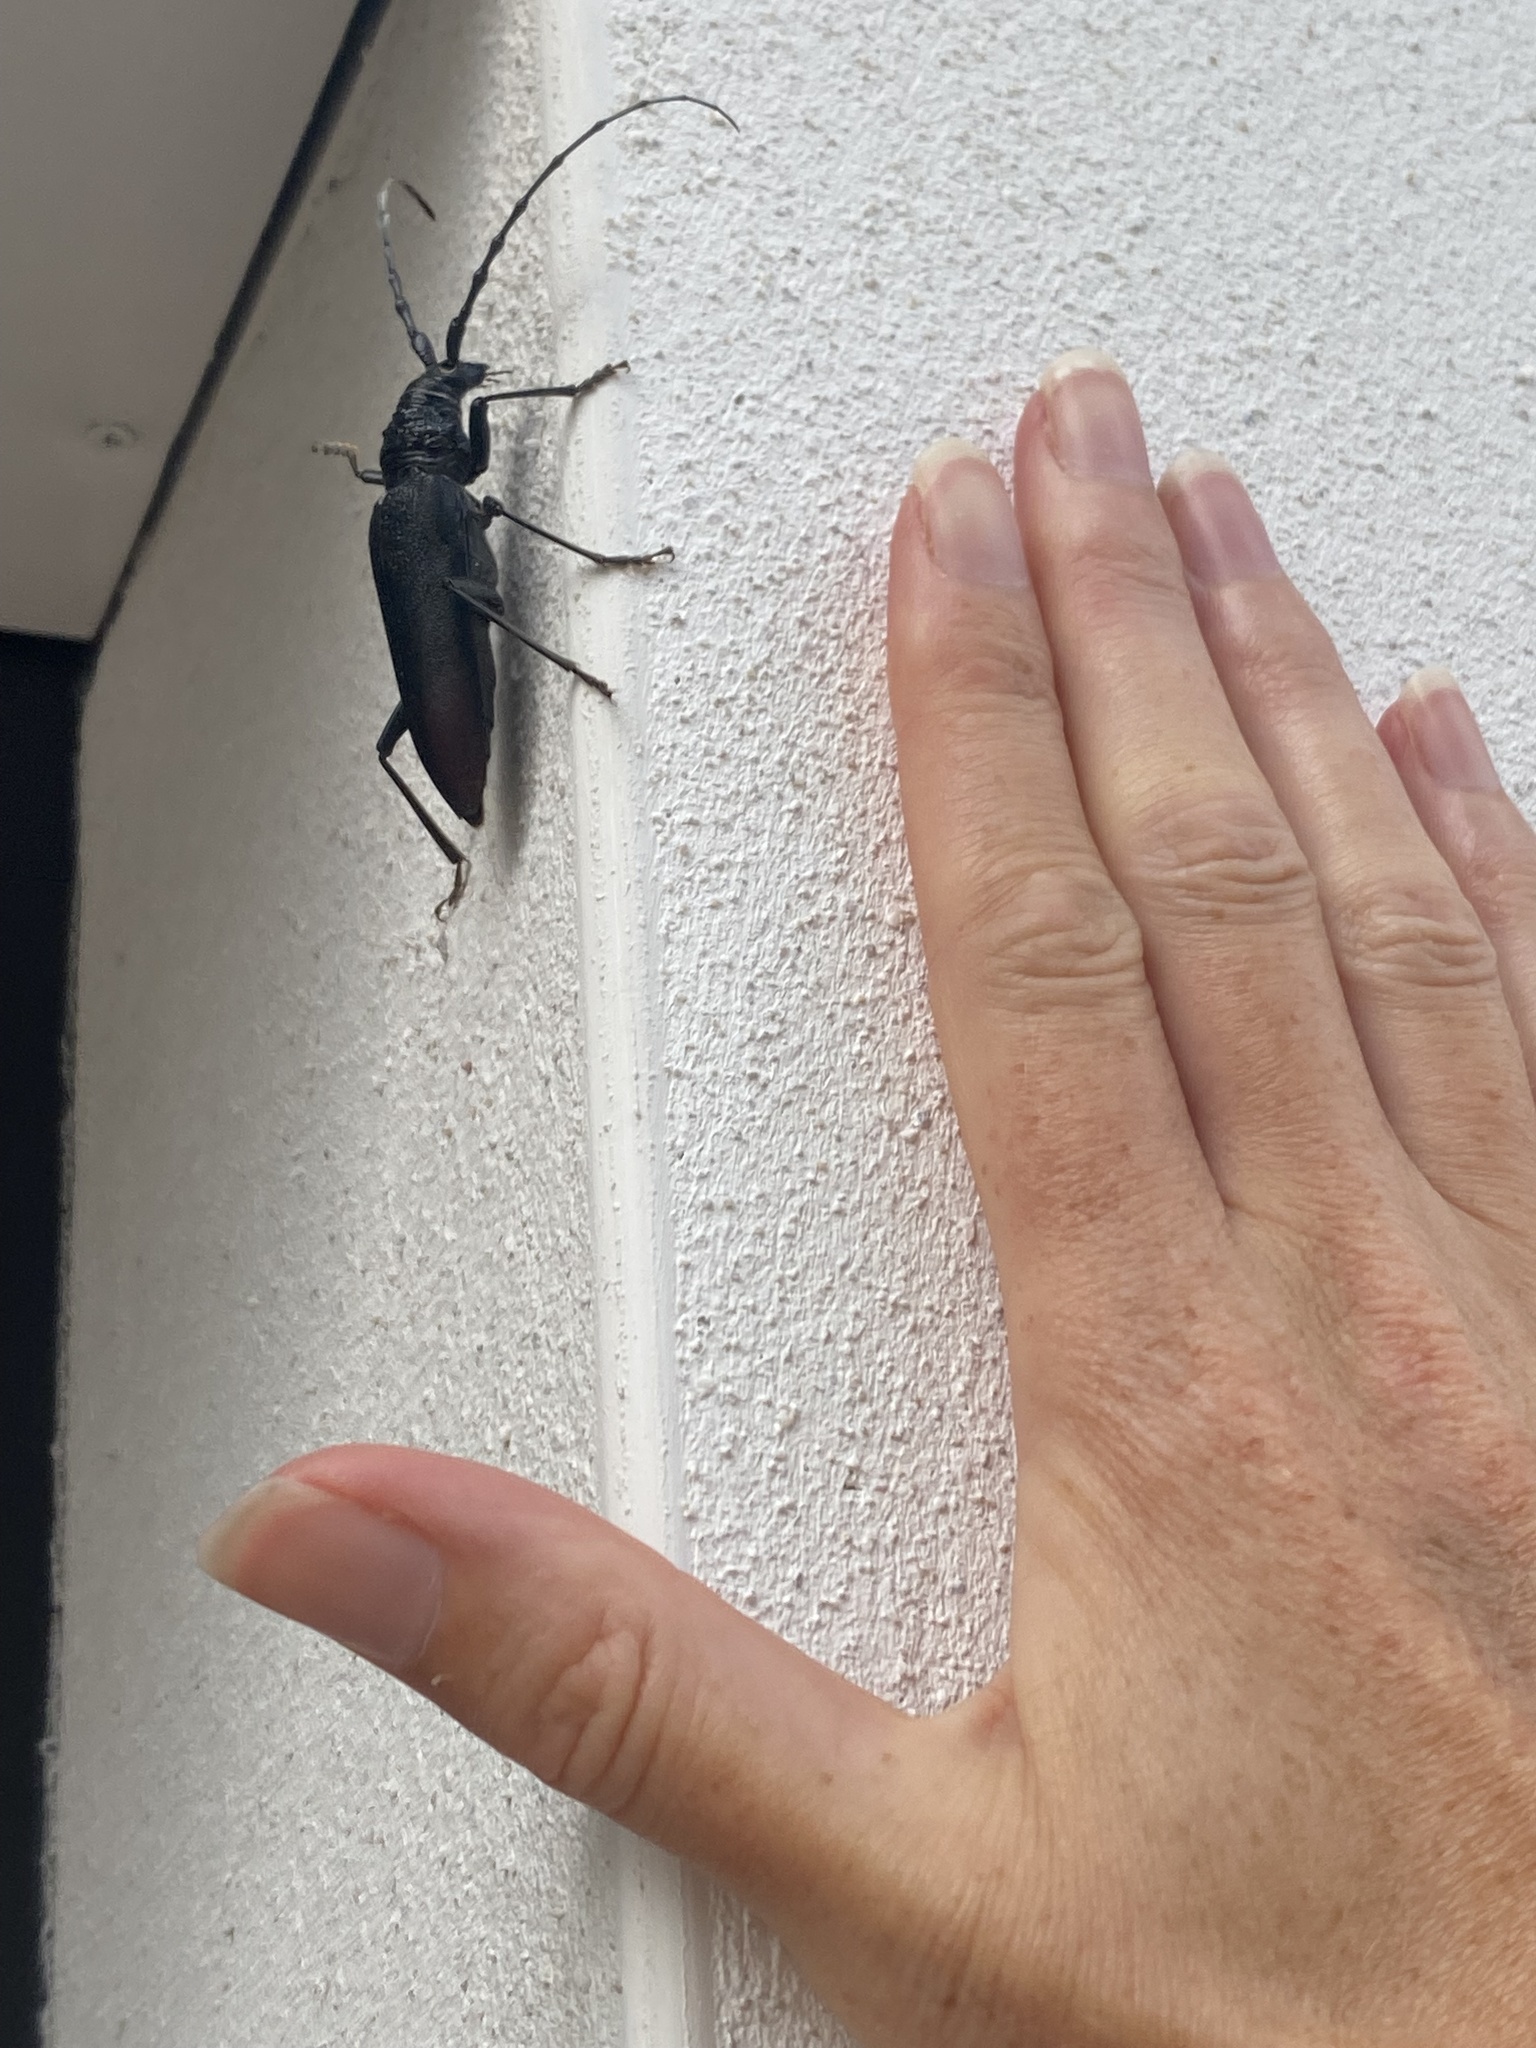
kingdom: Animalia
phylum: Arthropoda
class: Insecta
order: Coleoptera
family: Cerambycidae
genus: Cerambyx
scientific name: Cerambyx cerdo
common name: Cerambyx longicorn
